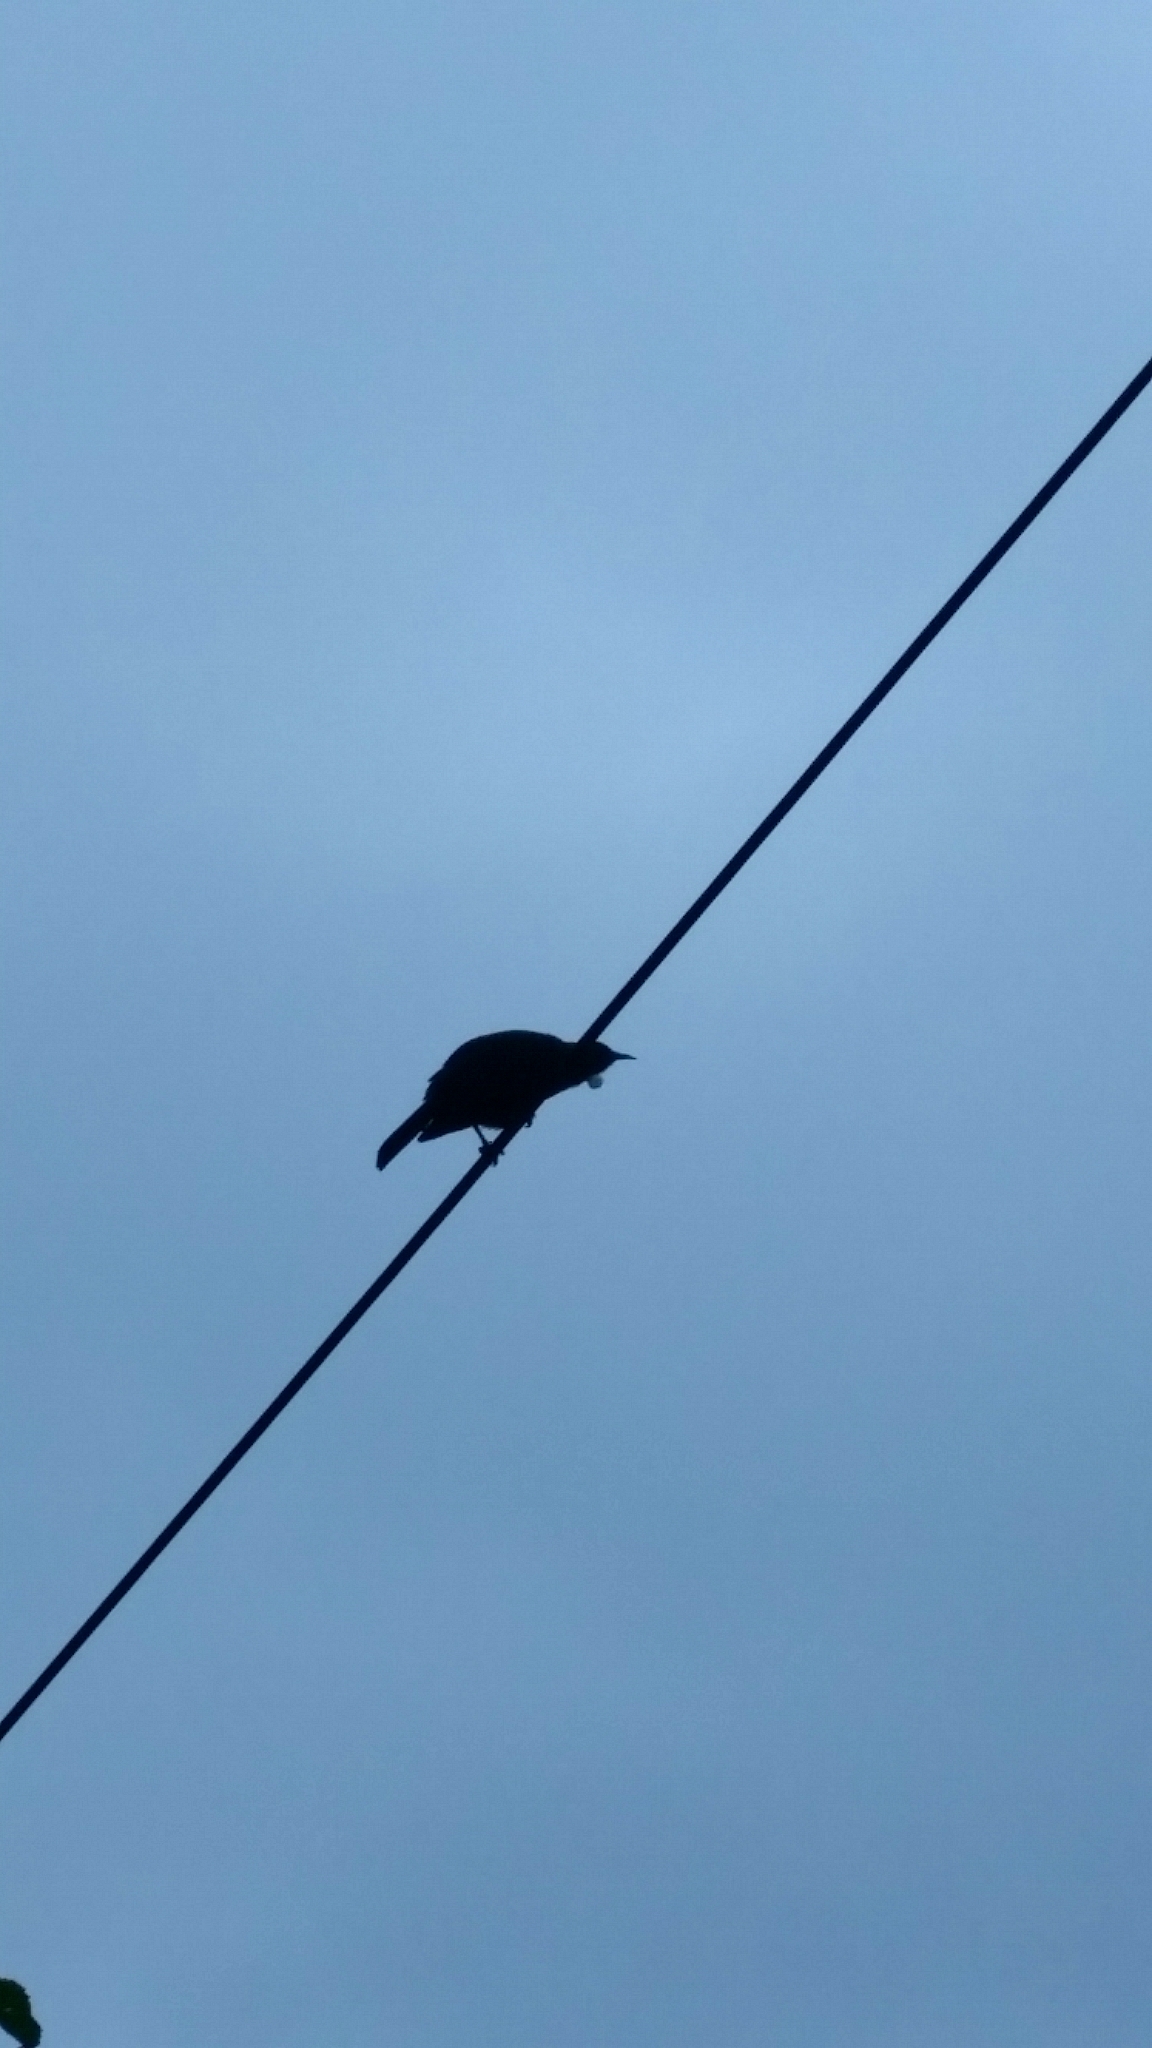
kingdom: Animalia
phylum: Chordata
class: Aves
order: Passeriformes
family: Meliphagidae
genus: Prosthemadera
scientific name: Prosthemadera novaeseelandiae
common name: Tui
